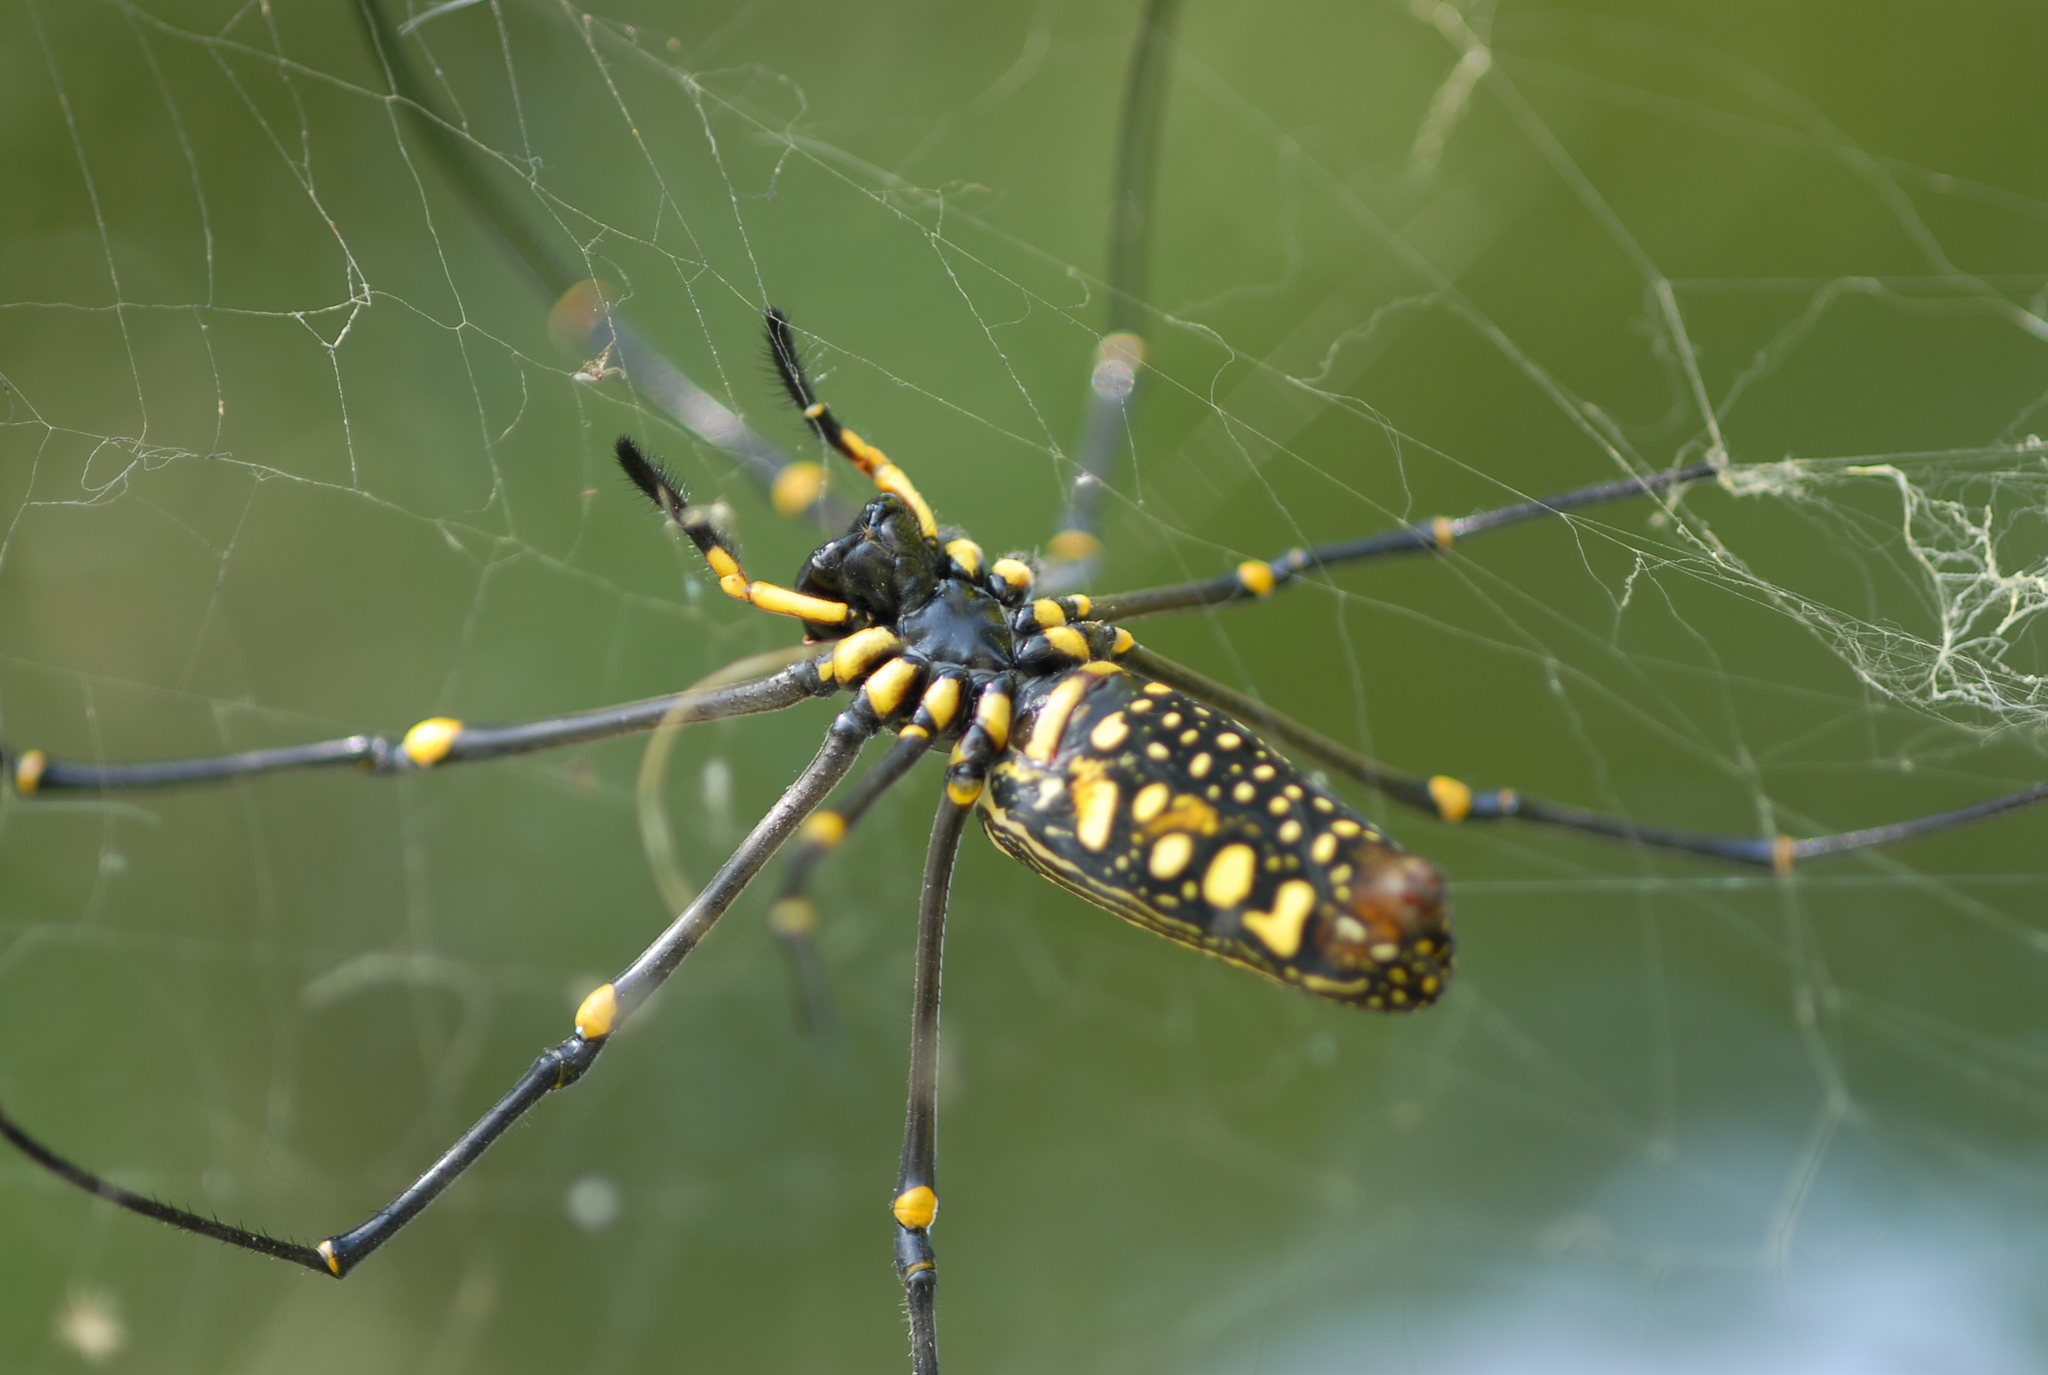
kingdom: Animalia
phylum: Arthropoda
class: Arachnida
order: Araneae
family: Araneidae
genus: Nephila
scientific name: Nephila pilipes
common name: Giant golden orb weaver
